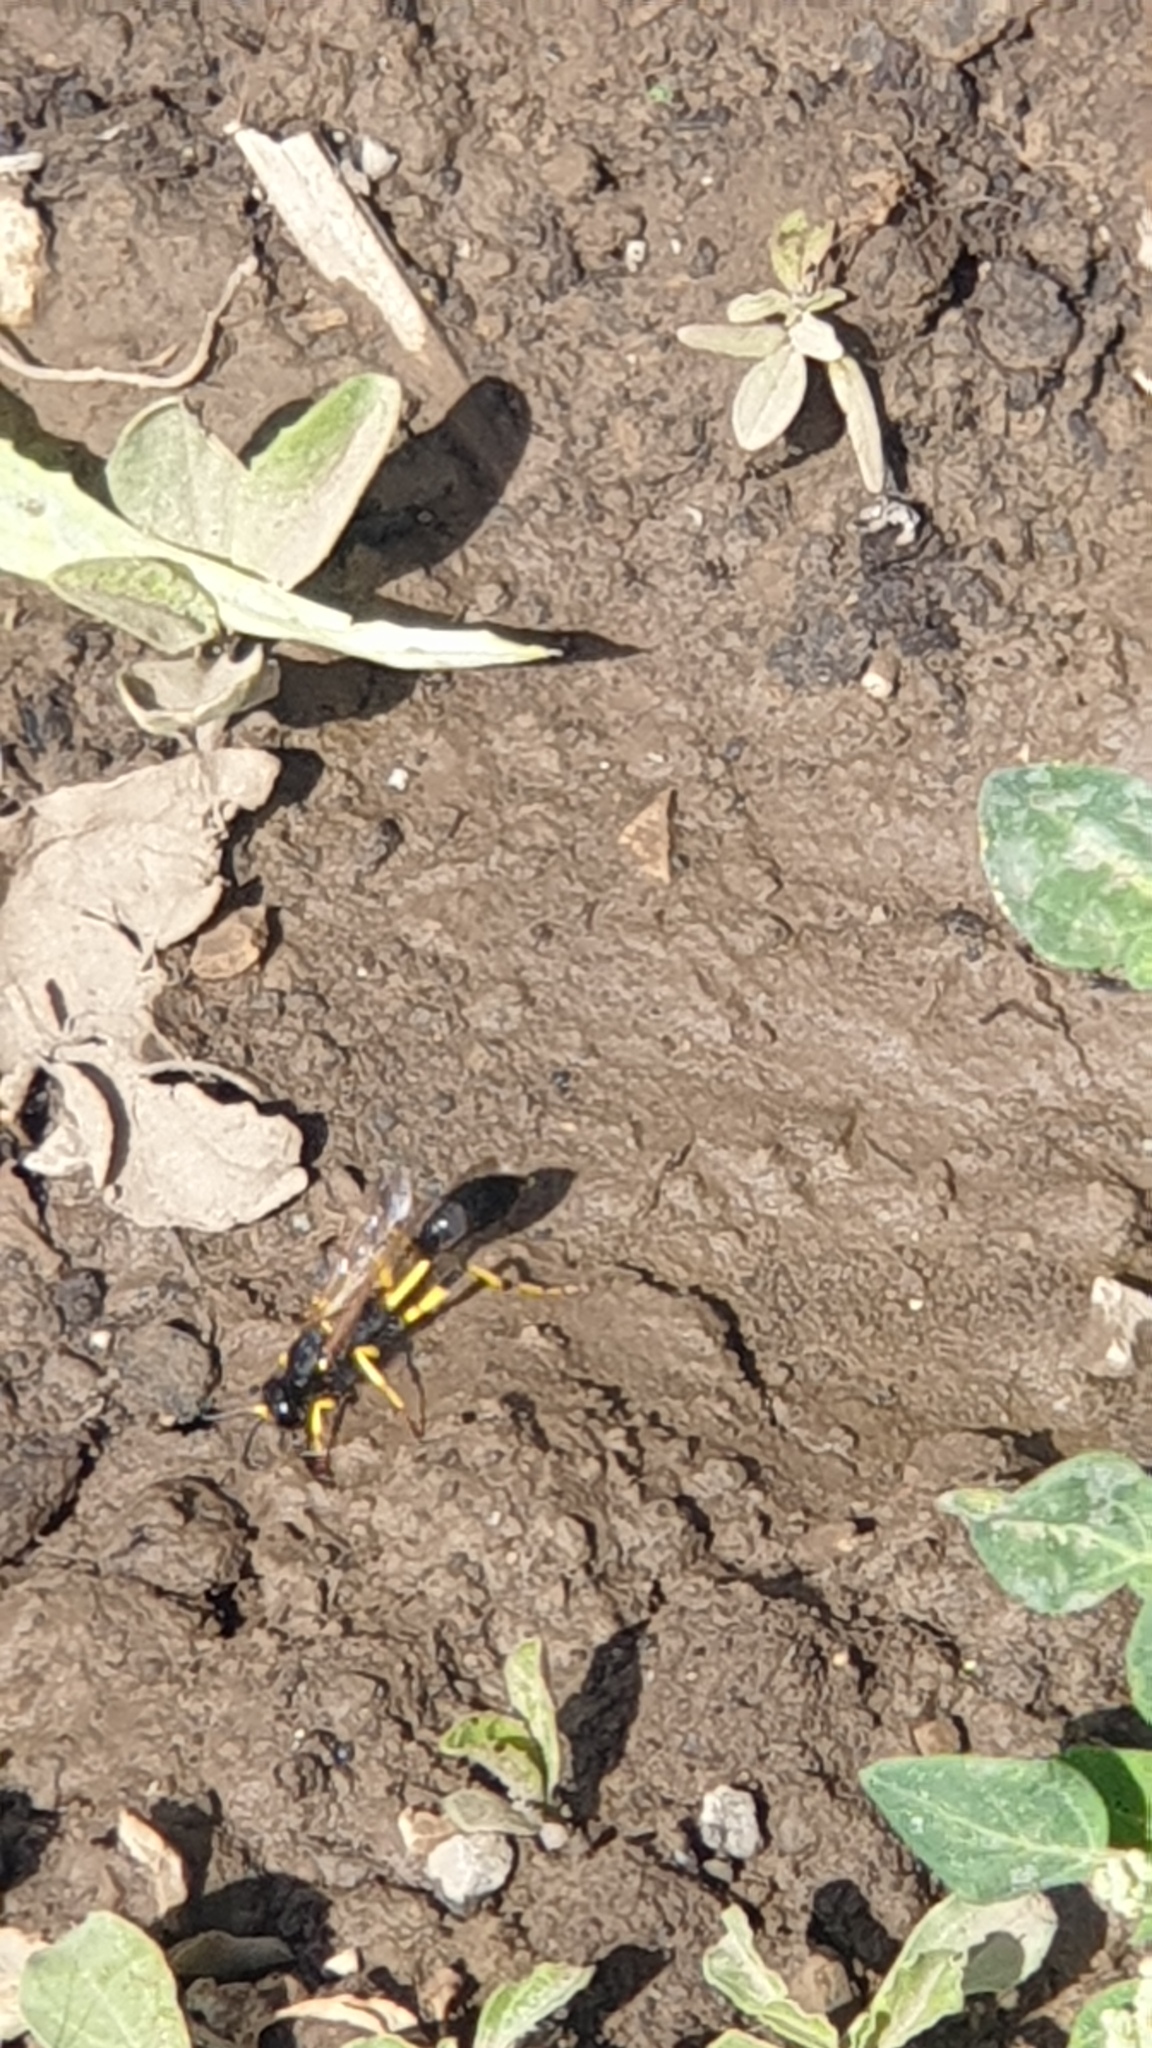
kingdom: Animalia
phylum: Arthropoda
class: Insecta
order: Hymenoptera
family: Sphecidae
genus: Sceliphron
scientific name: Sceliphron destillatorium
